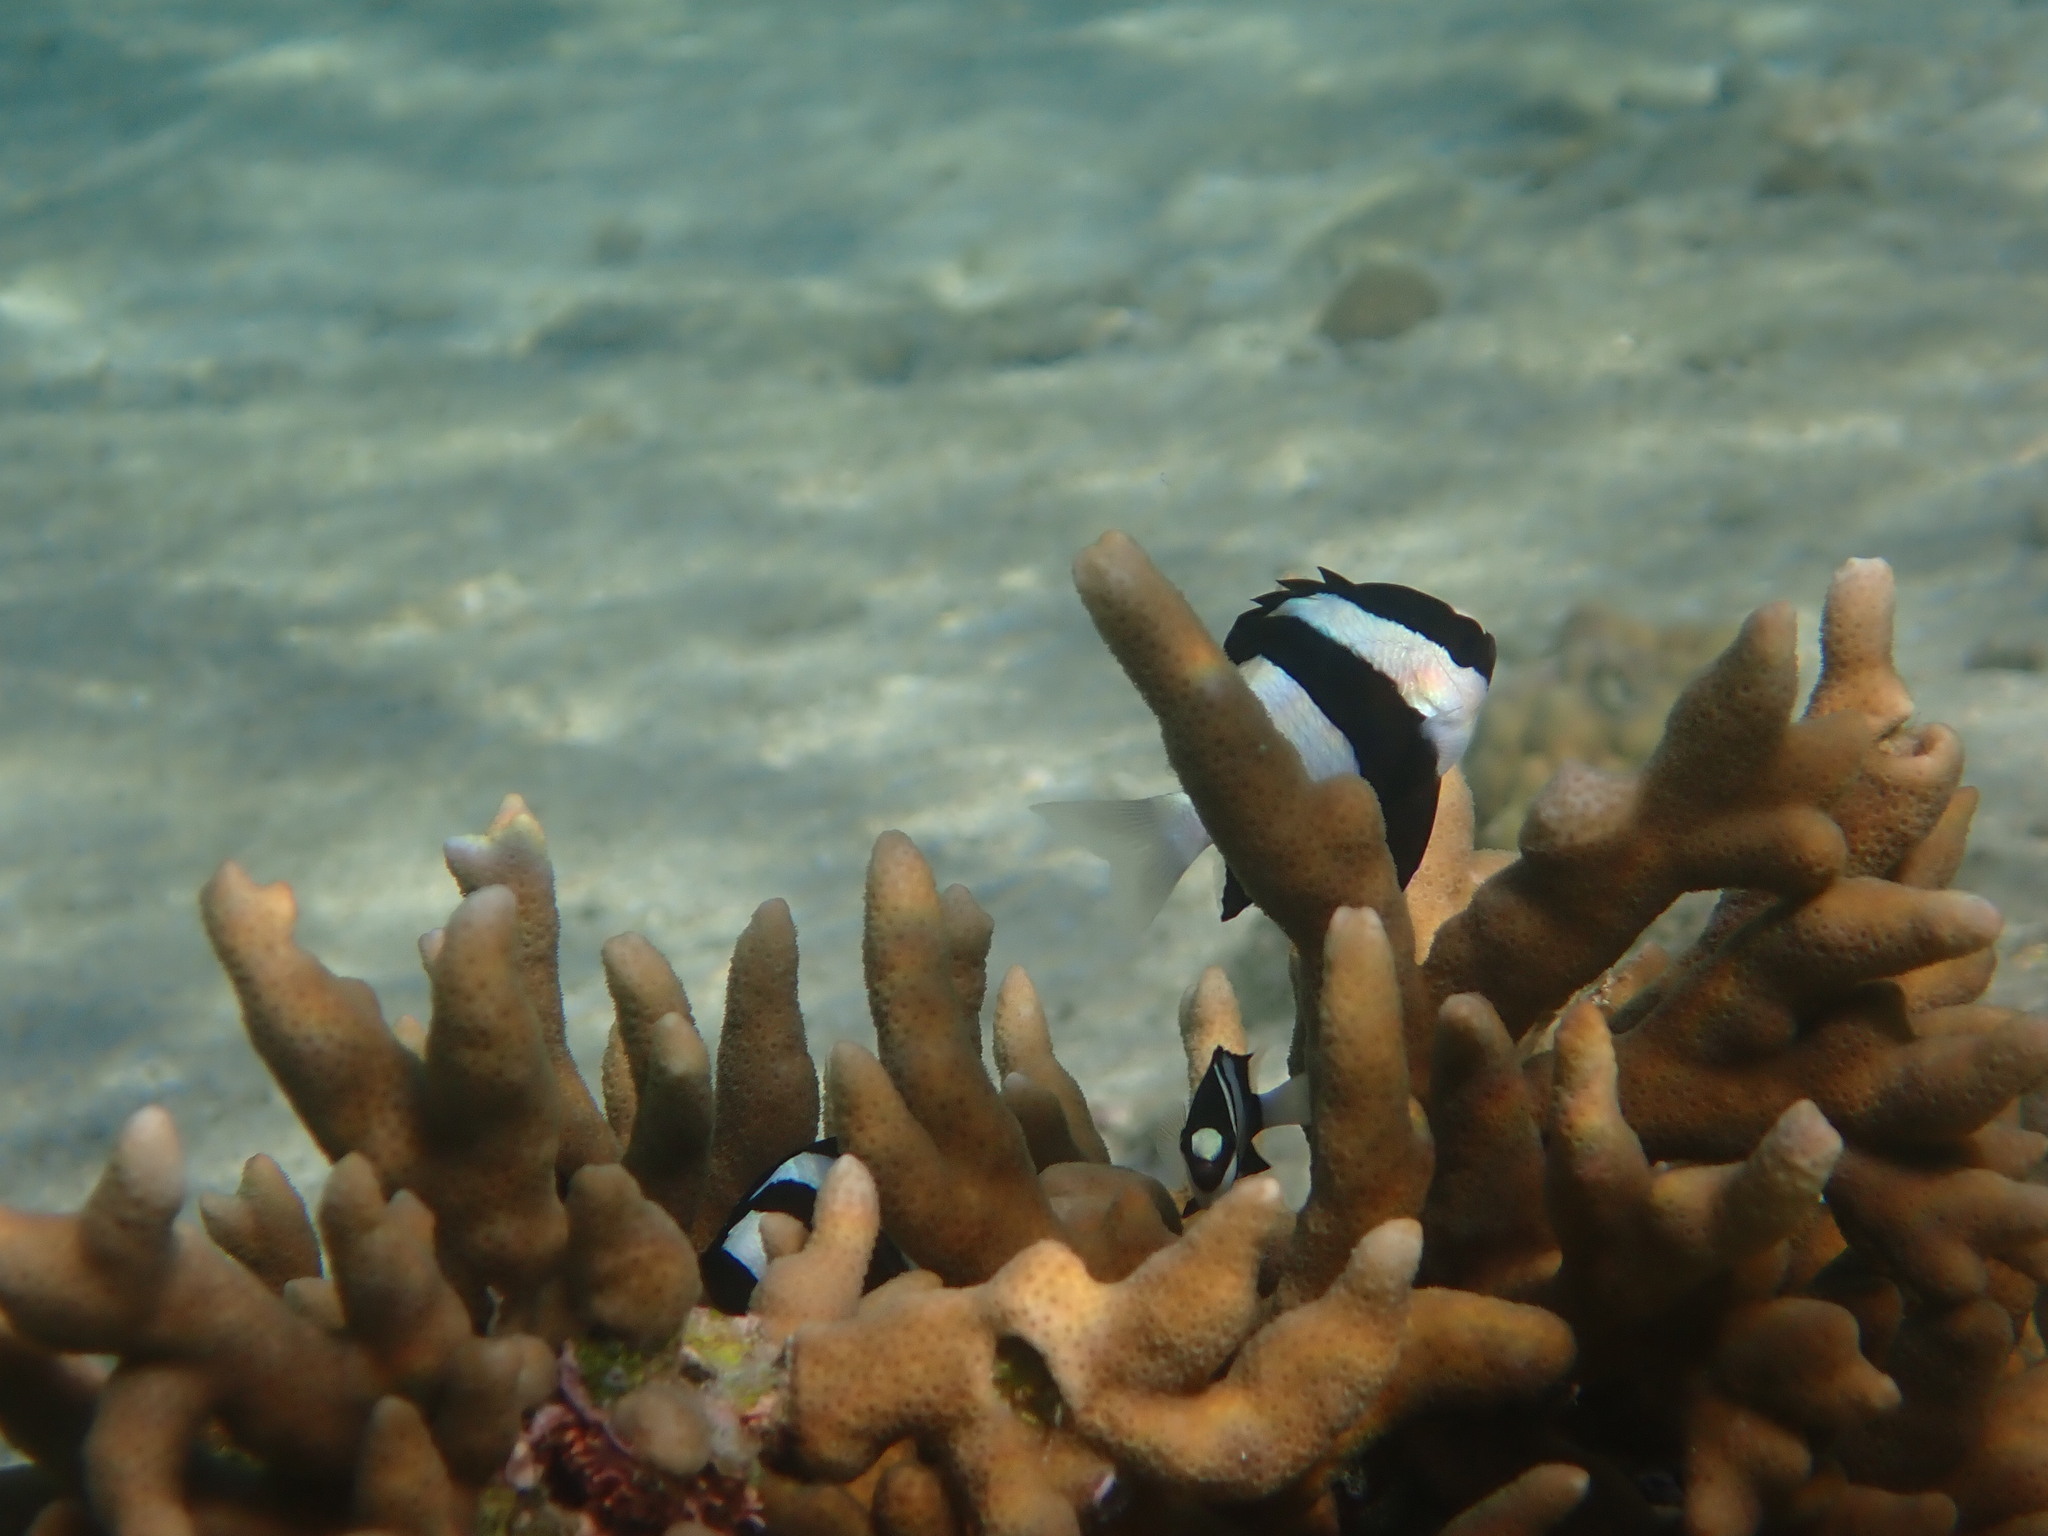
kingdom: Animalia
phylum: Chordata
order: Perciformes
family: Pomacentridae
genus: Dascyllus
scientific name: Dascyllus aruanus
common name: Humbug dascyllus
